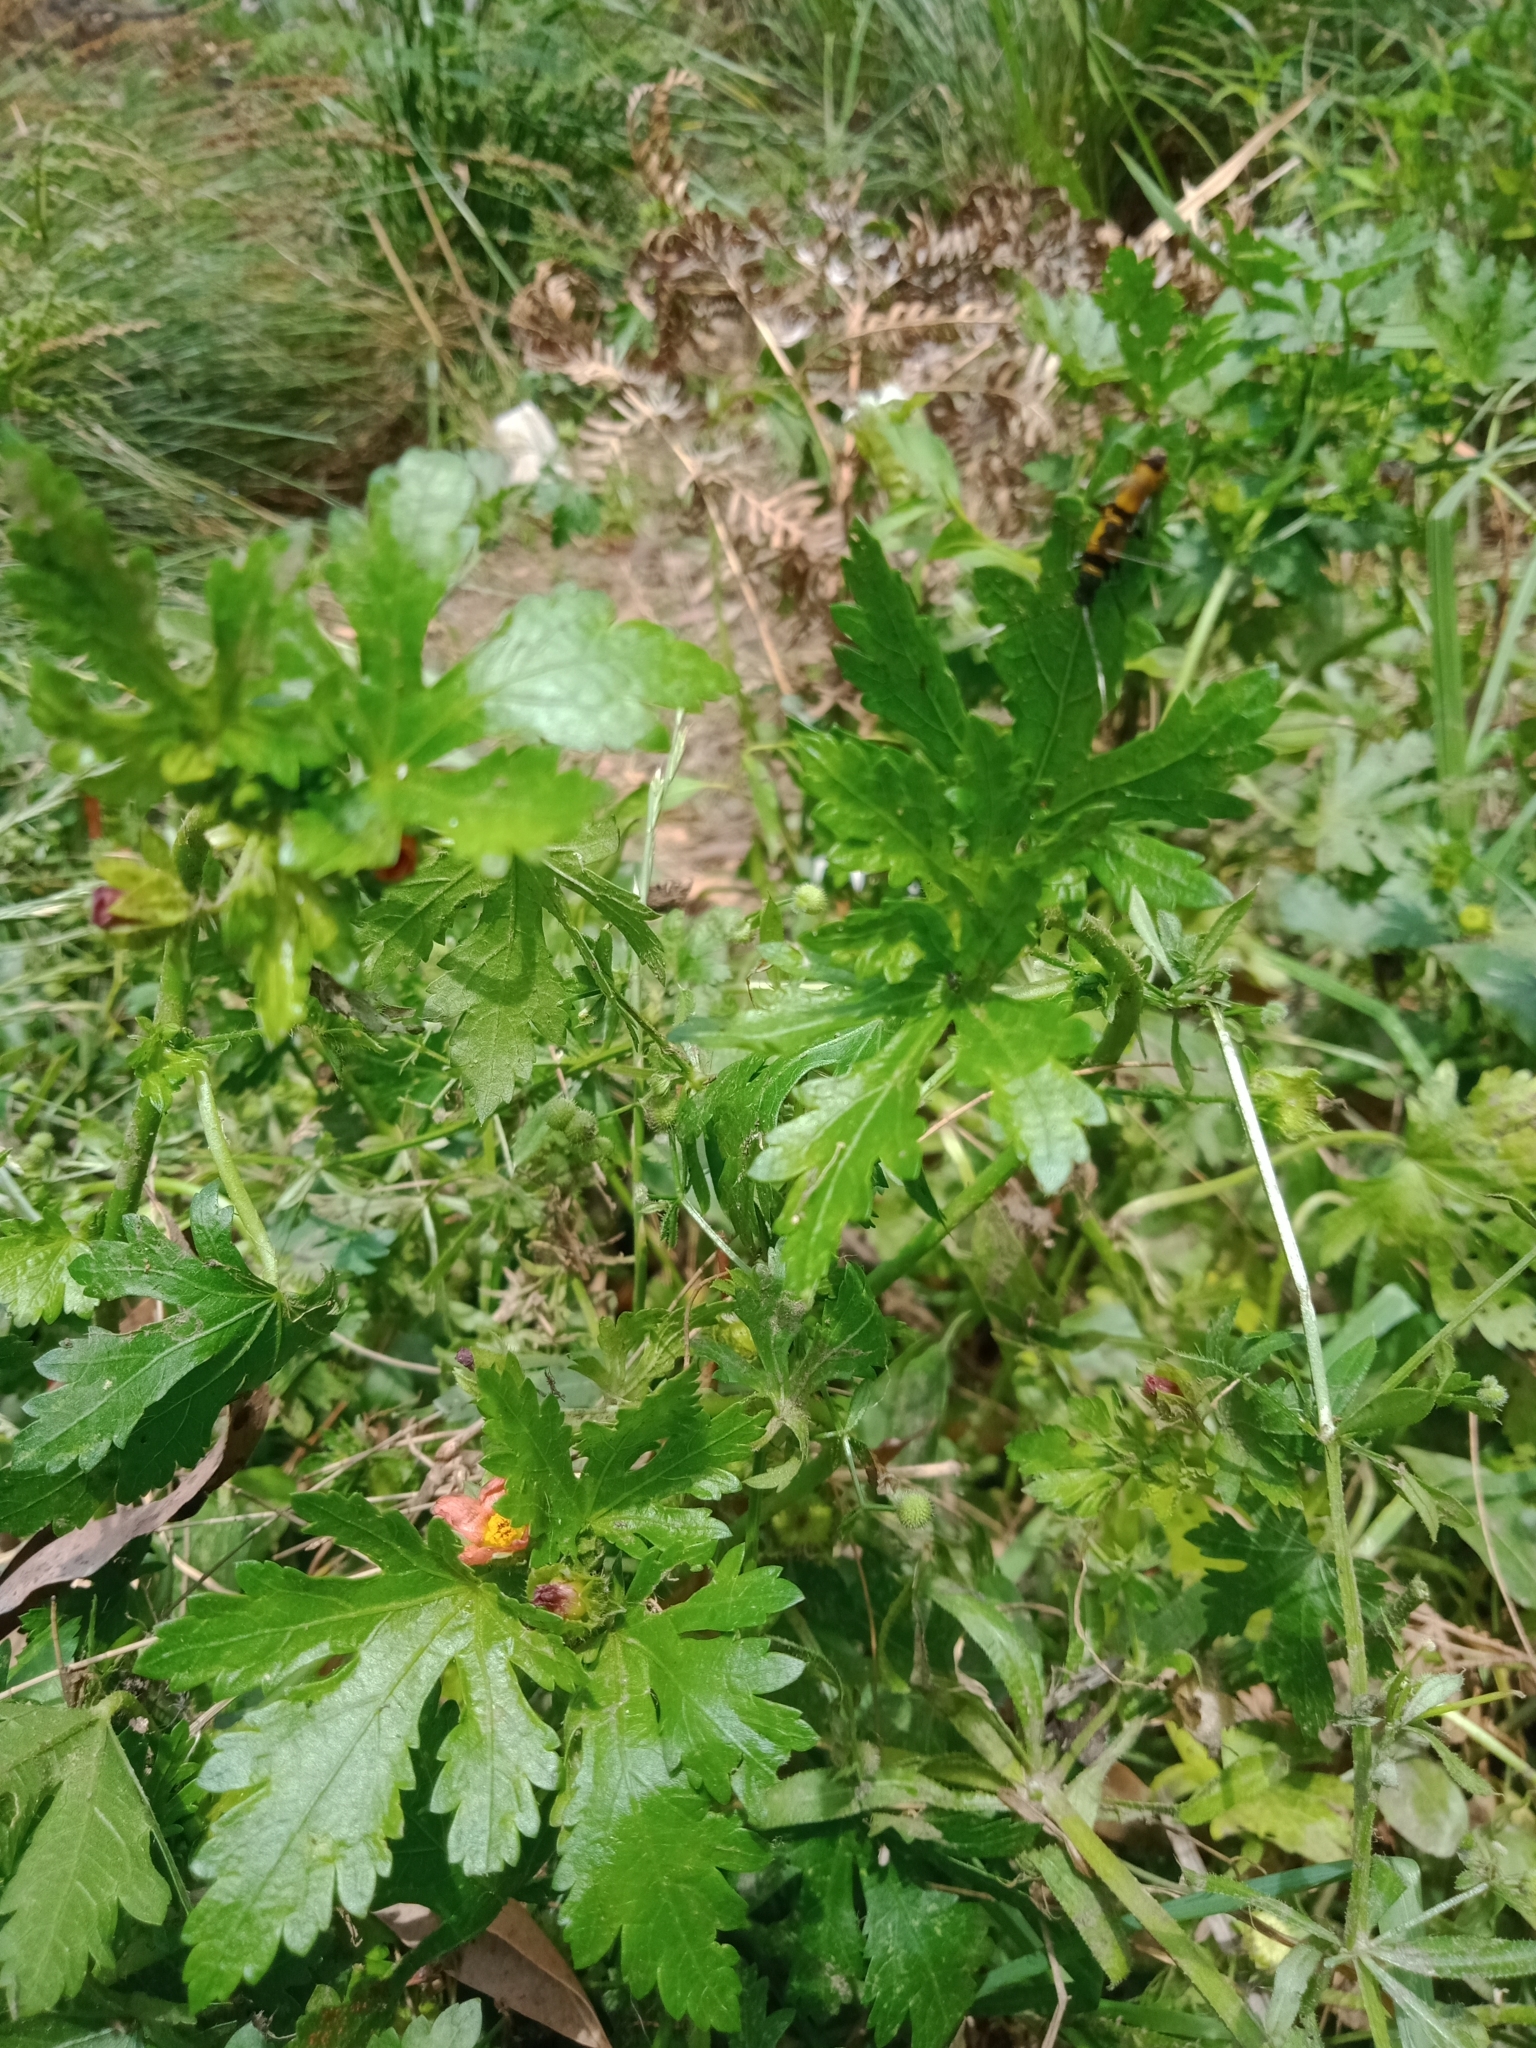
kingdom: Plantae
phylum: Tracheophyta
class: Magnoliopsida
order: Malvales
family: Malvaceae
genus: Modiola
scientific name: Modiola caroliniana
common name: Carolina bristlemallow
